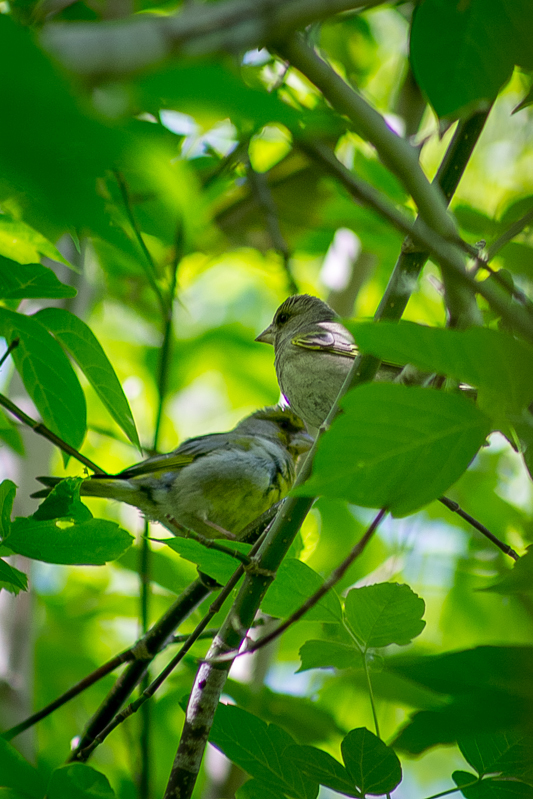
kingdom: Plantae
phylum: Tracheophyta
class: Liliopsida
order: Poales
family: Poaceae
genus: Chloris
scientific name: Chloris chloris
